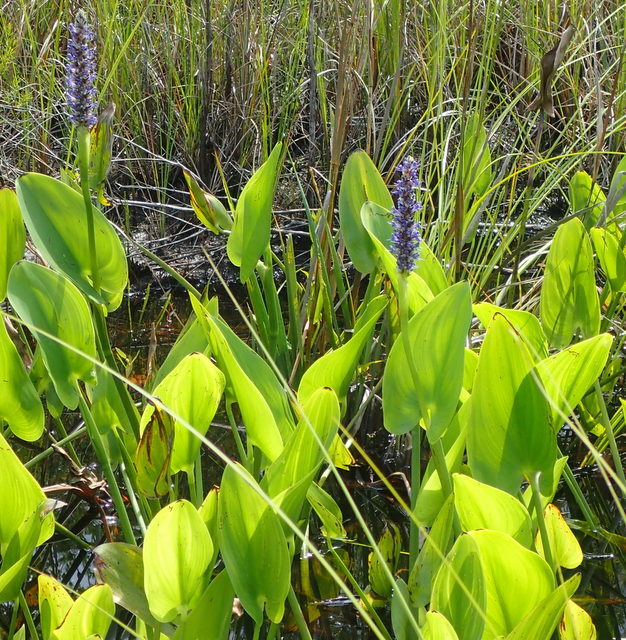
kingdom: Plantae
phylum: Tracheophyta
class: Liliopsida
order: Commelinales
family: Pontederiaceae
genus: Pontederia
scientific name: Pontederia cordata
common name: Pickerelweed
